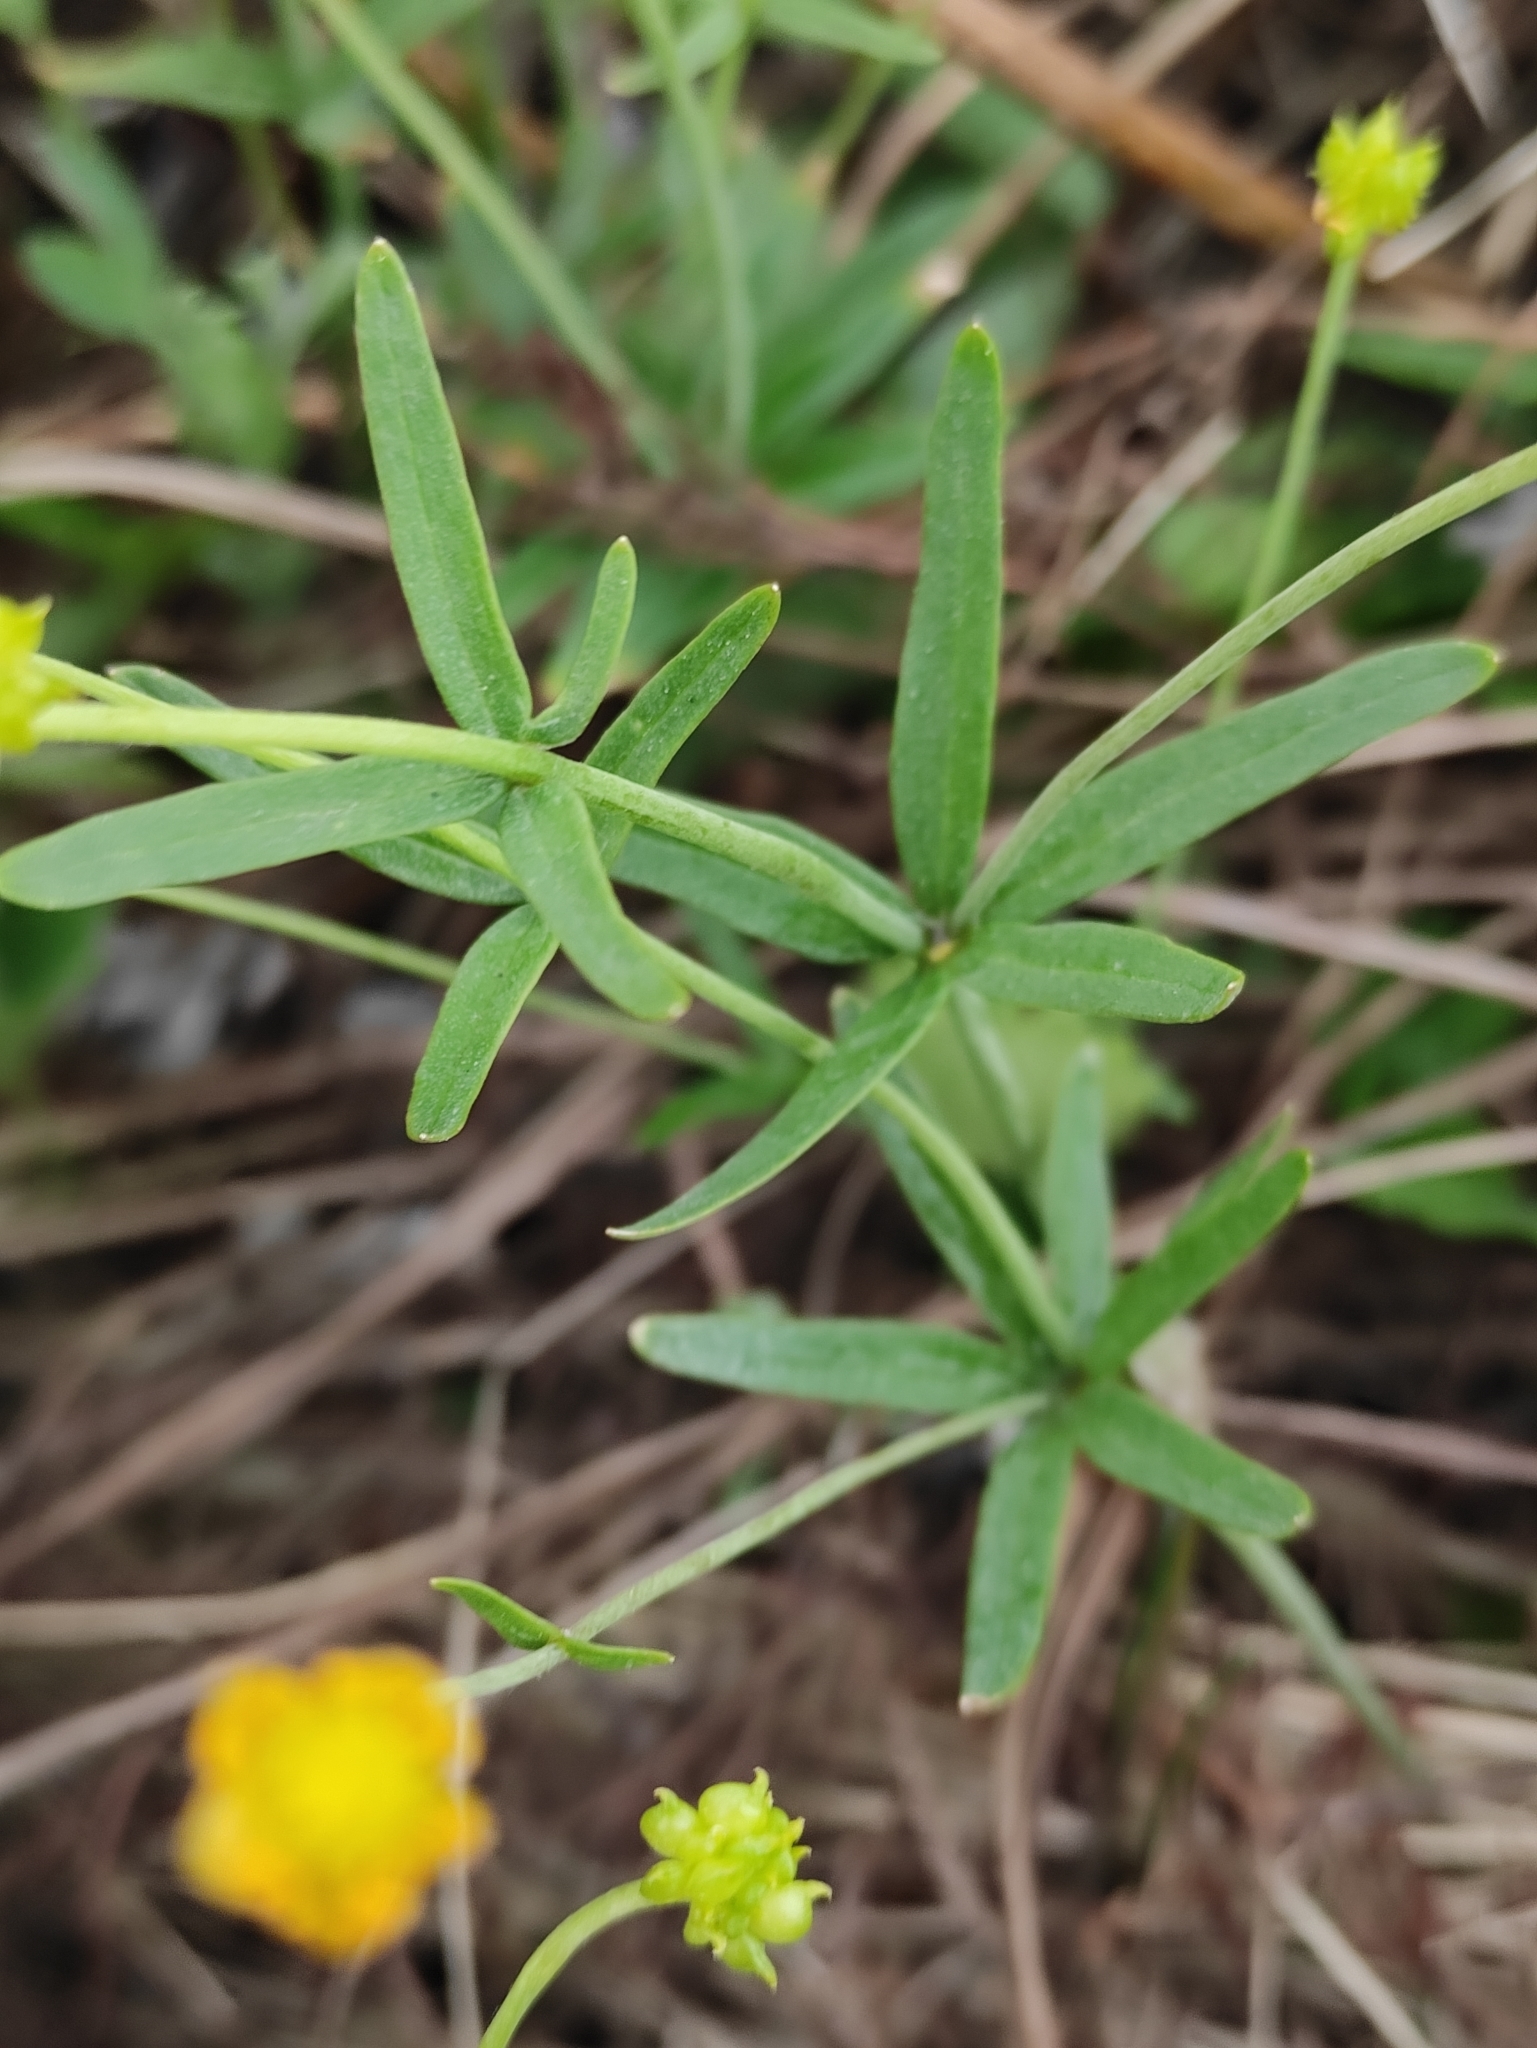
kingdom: Plantae
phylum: Tracheophyta
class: Magnoliopsida
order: Ranunculales
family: Ranunculaceae
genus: Ranunculus
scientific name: Ranunculus monophyllus
